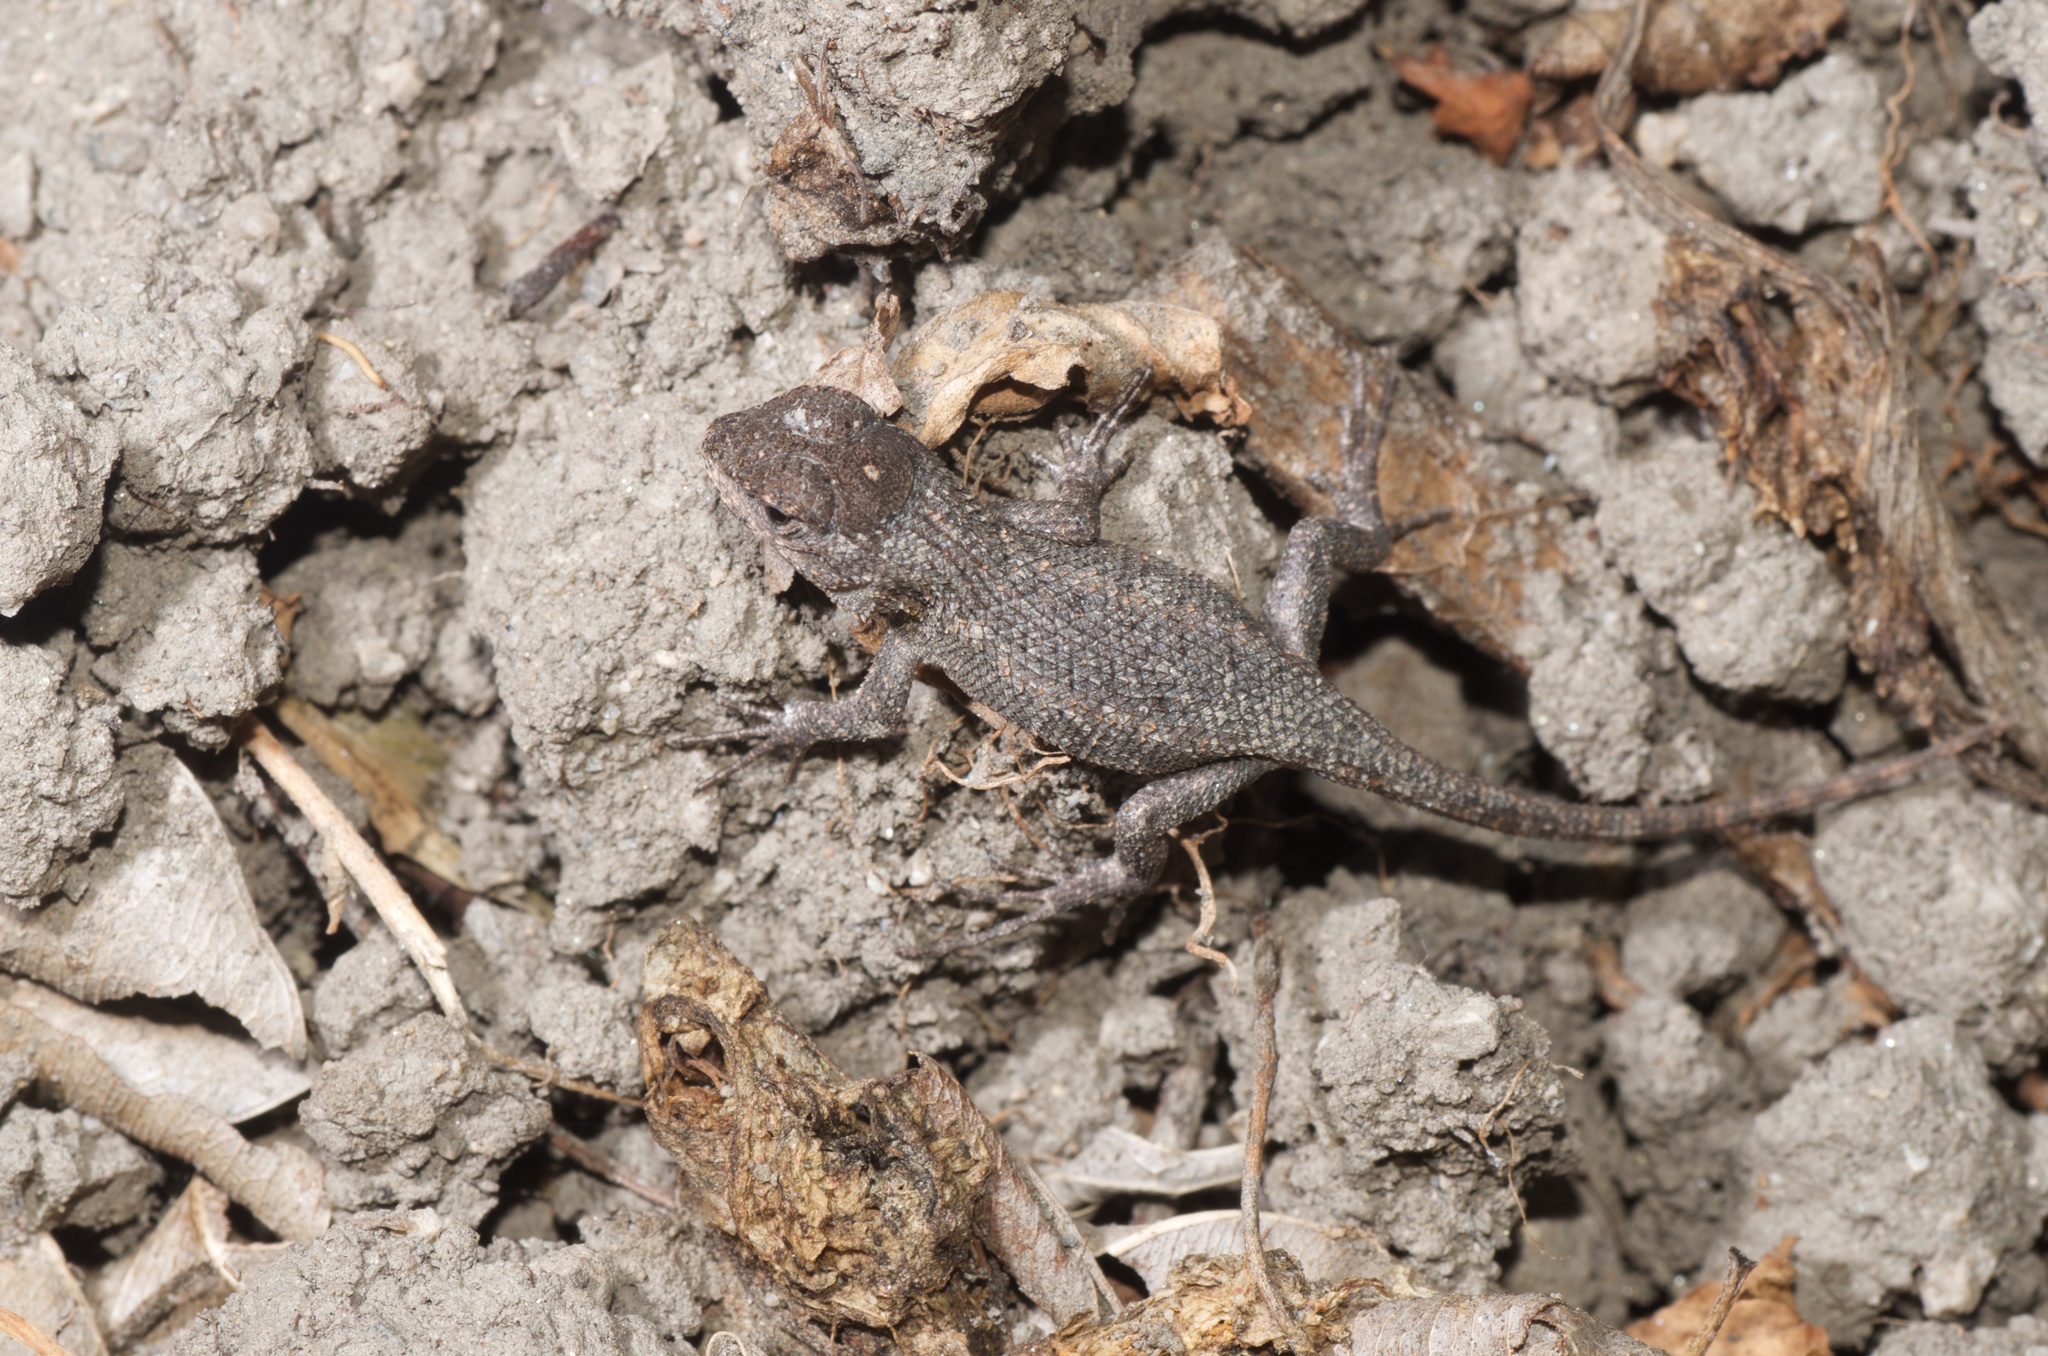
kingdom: Animalia
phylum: Chordata
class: Squamata
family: Phrynosomatidae
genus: Sceloporus
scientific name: Sceloporus occidentalis
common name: Western fence lizard
